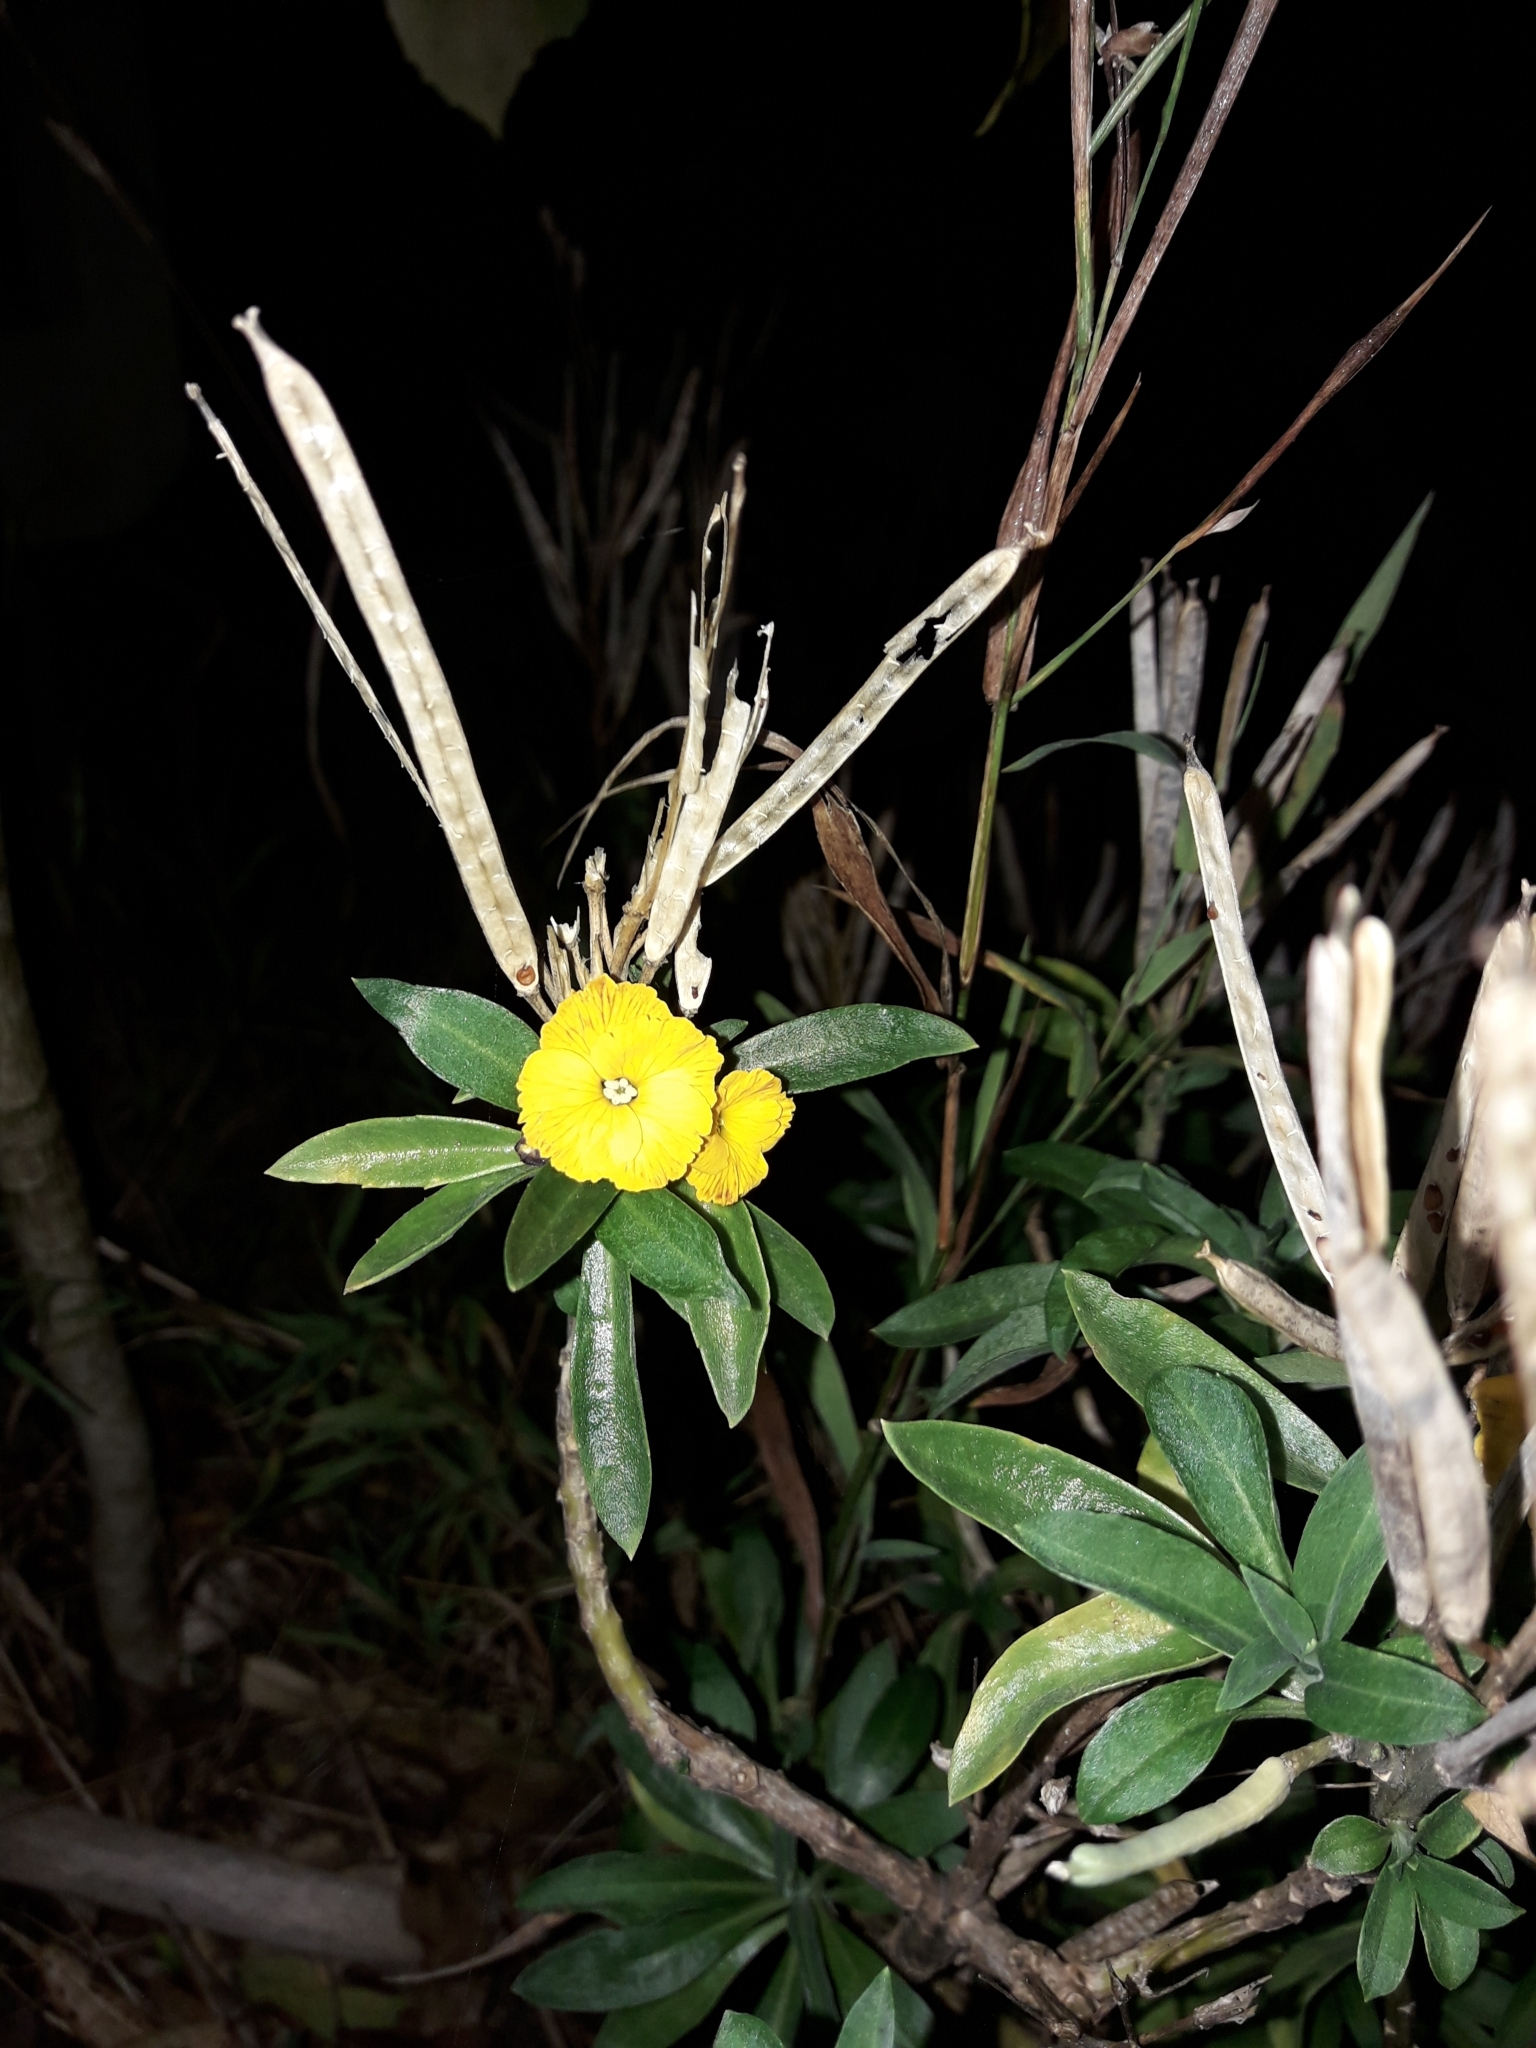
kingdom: Plantae
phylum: Tracheophyta
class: Magnoliopsida
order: Brassicales
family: Brassicaceae
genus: Erysimum
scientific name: Erysimum cheiri
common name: Wallflower
